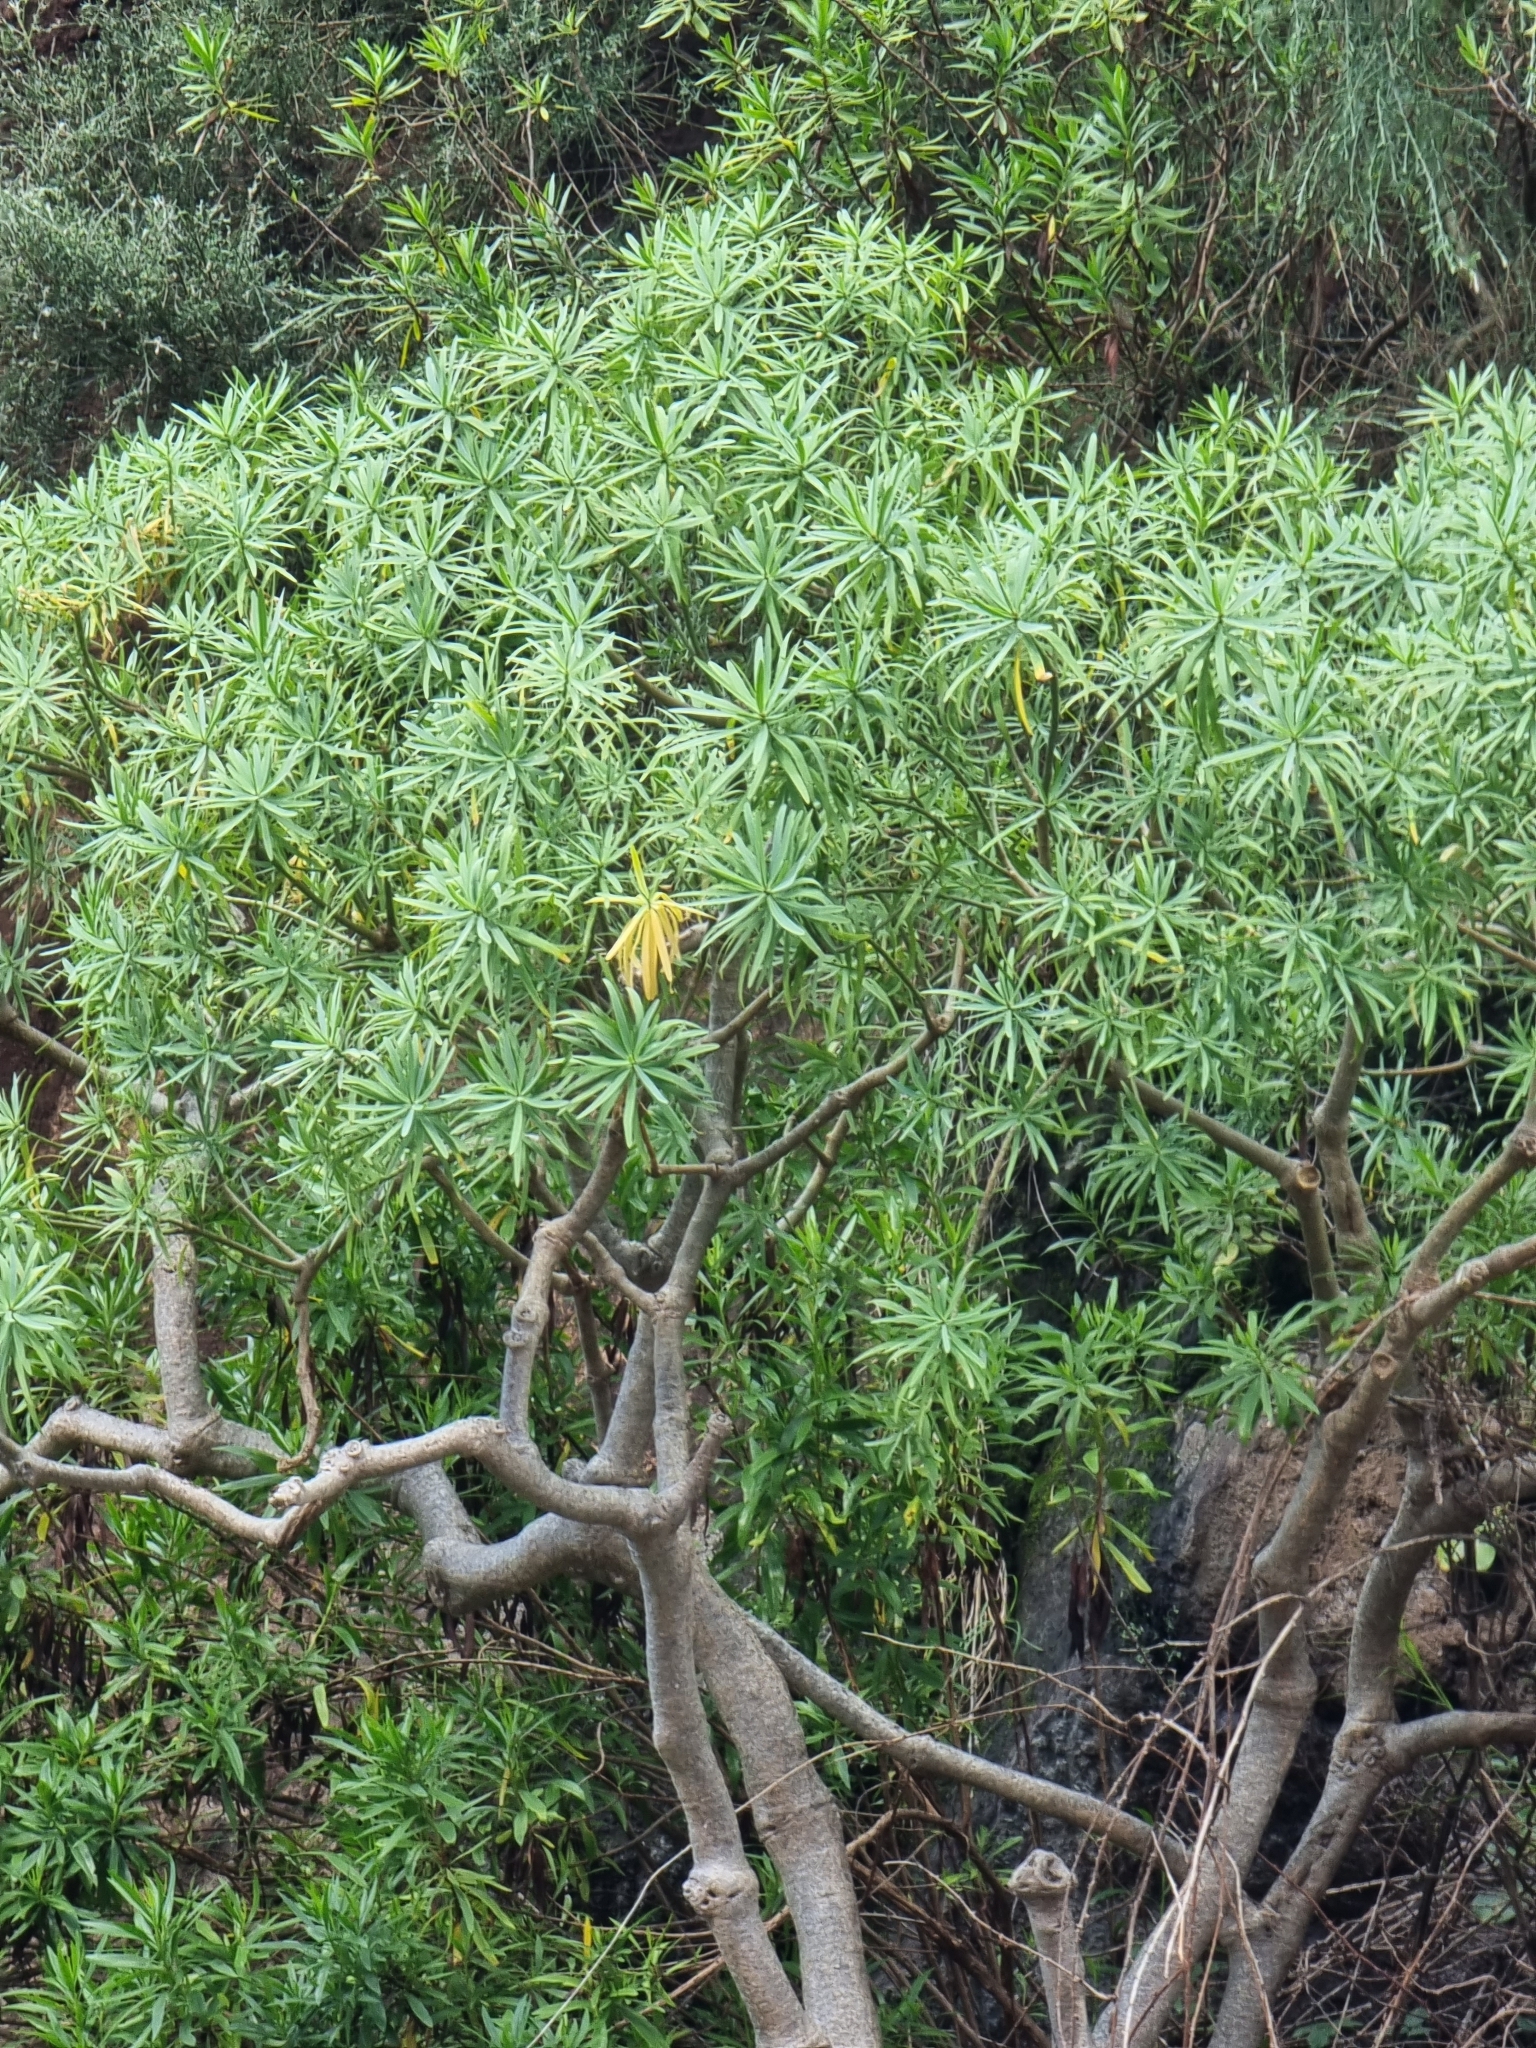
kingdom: Plantae
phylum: Tracheophyta
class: Magnoliopsida
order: Malpighiales
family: Euphorbiaceae
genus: Euphorbia
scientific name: Euphorbia piscatoria
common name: Fish-stunning spurge
